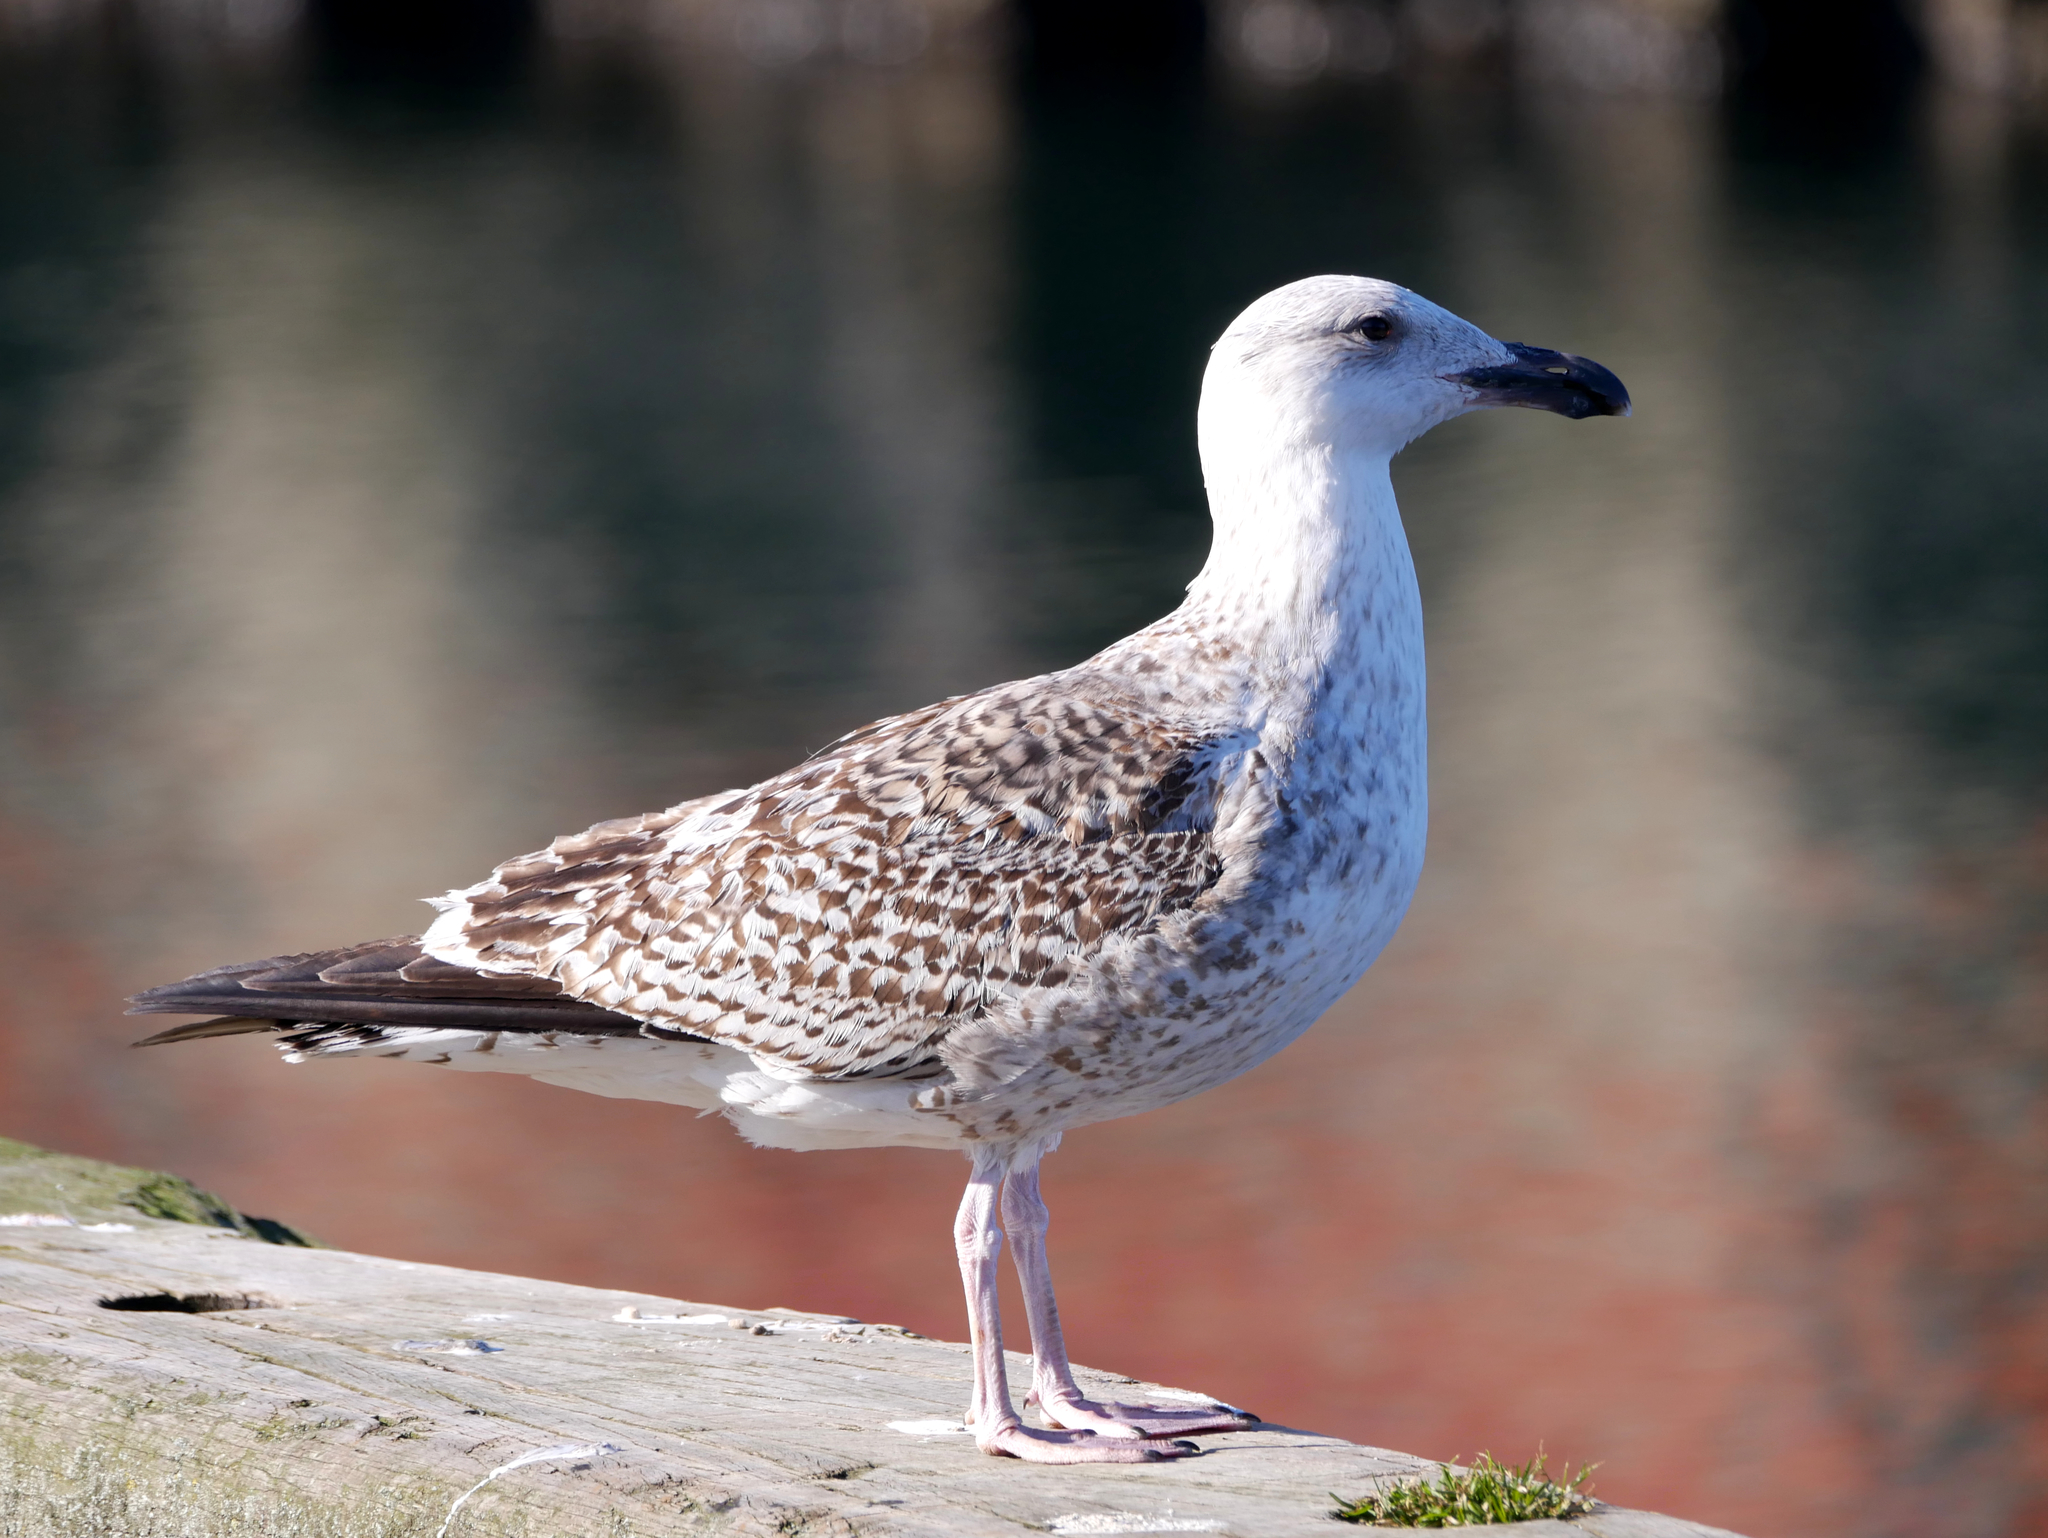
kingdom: Animalia
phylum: Chordata
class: Aves
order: Charadriiformes
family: Laridae
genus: Larus
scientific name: Larus marinus
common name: Great black-backed gull
